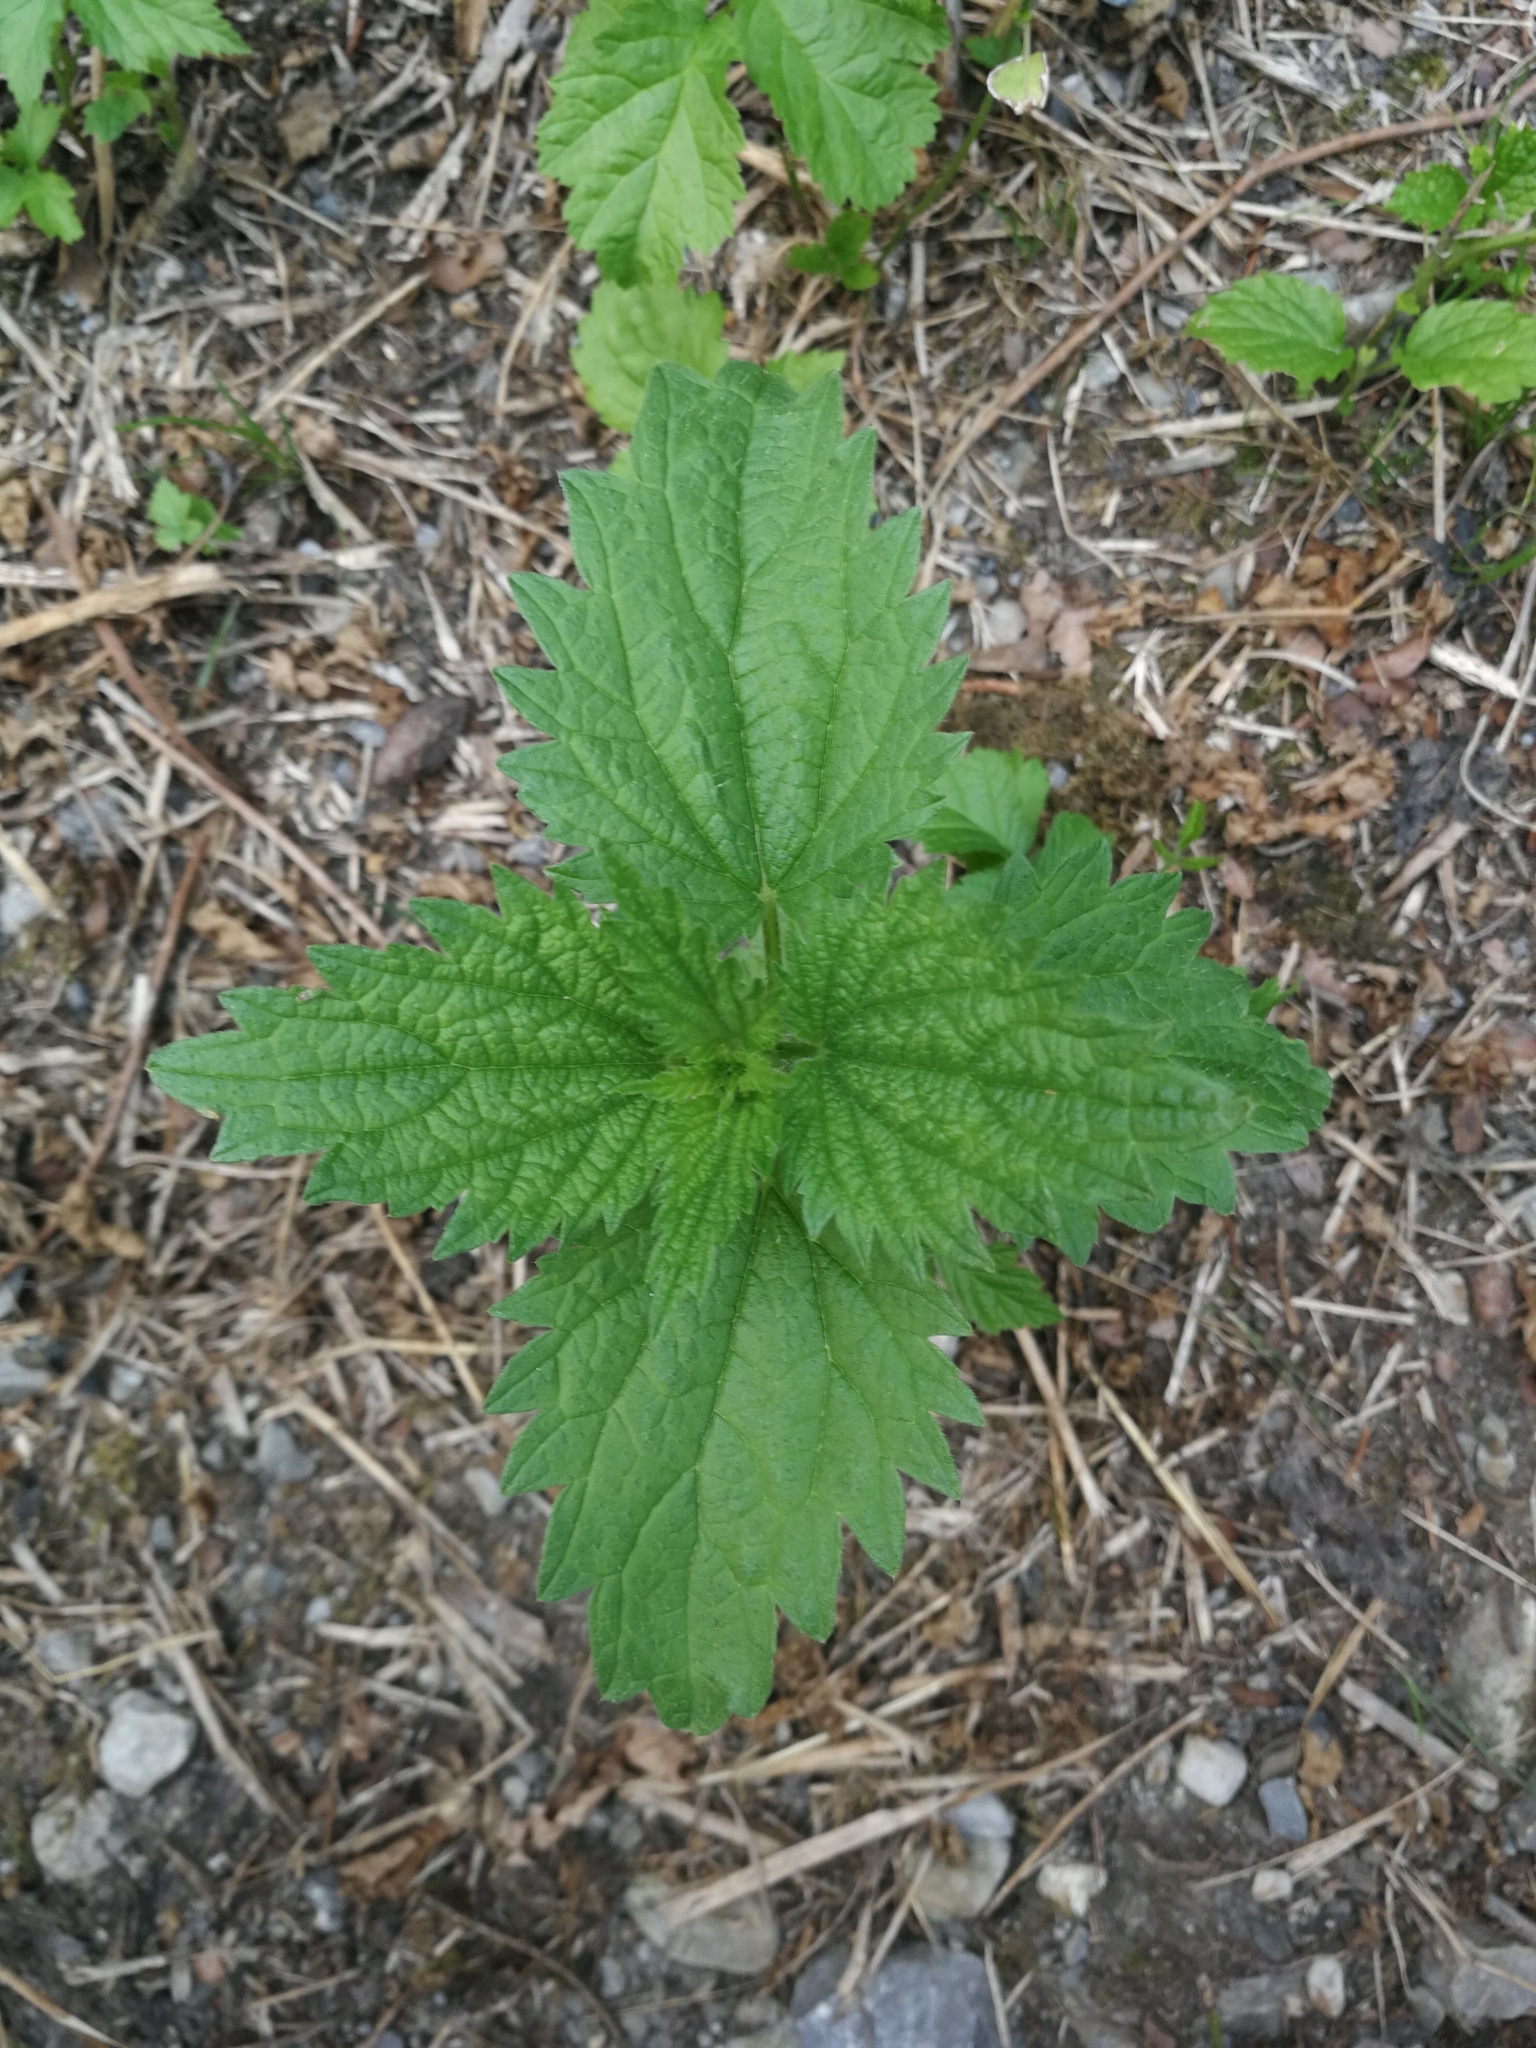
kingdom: Plantae
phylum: Tracheophyta
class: Magnoliopsida
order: Rosales
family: Urticaceae
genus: Urtica
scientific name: Urtica dioica
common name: Common nettle
